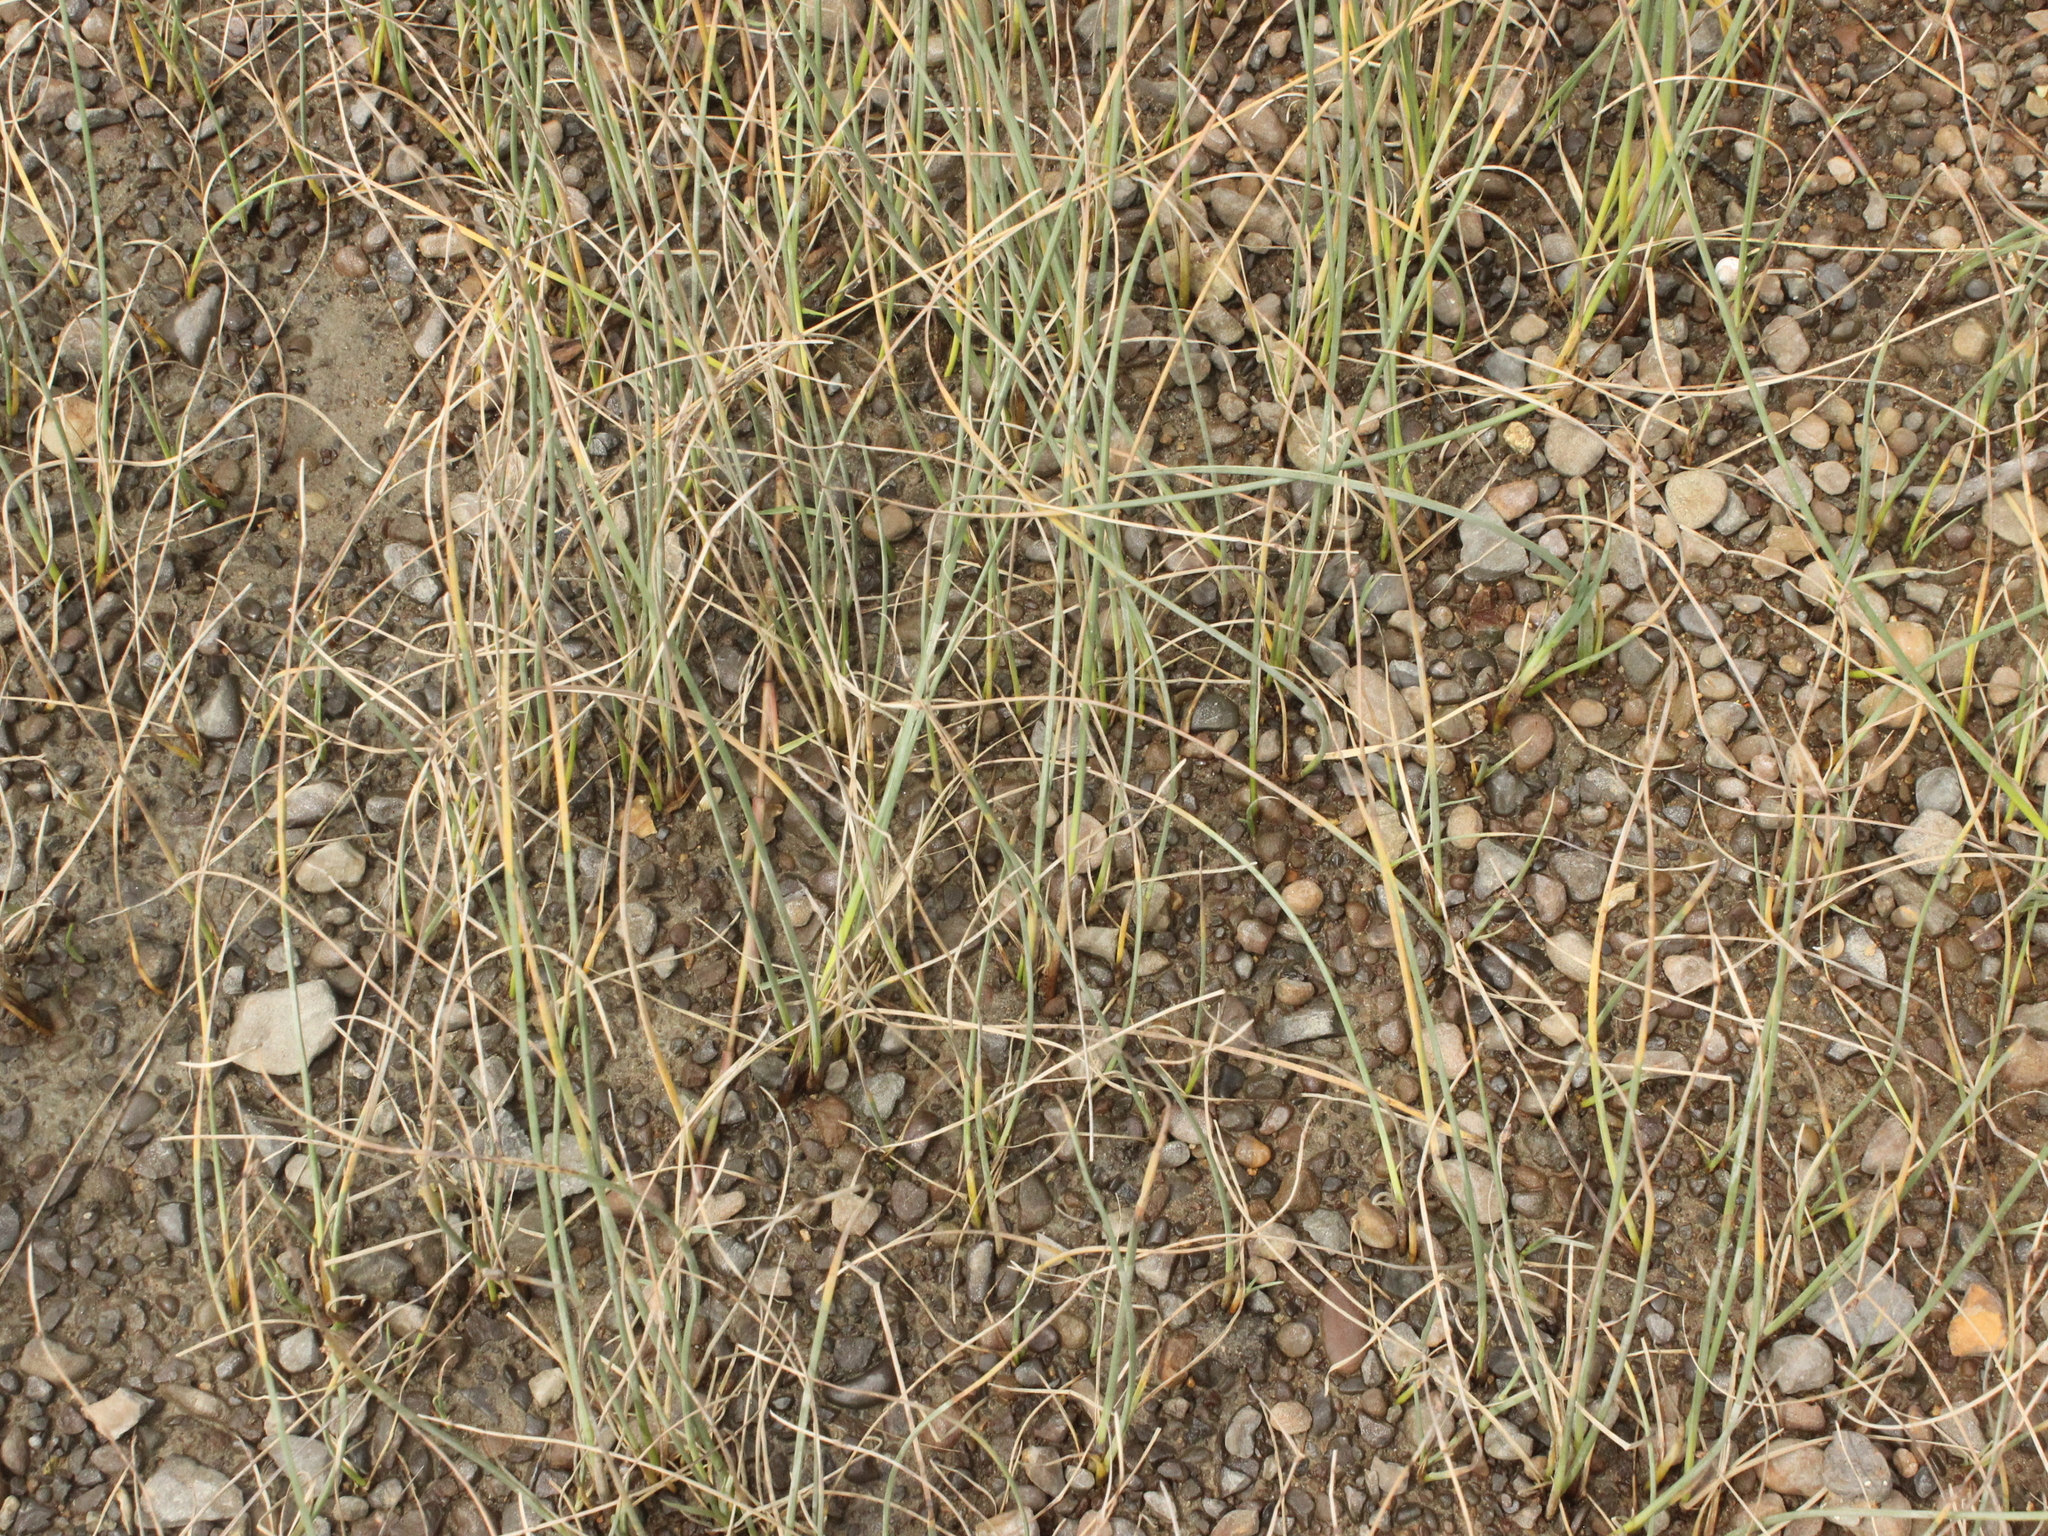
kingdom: Plantae
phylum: Tracheophyta
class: Liliopsida
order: Poales
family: Cyperaceae
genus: Schoenoplectus
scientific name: Schoenoplectus pungens
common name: Sharp club-rush
